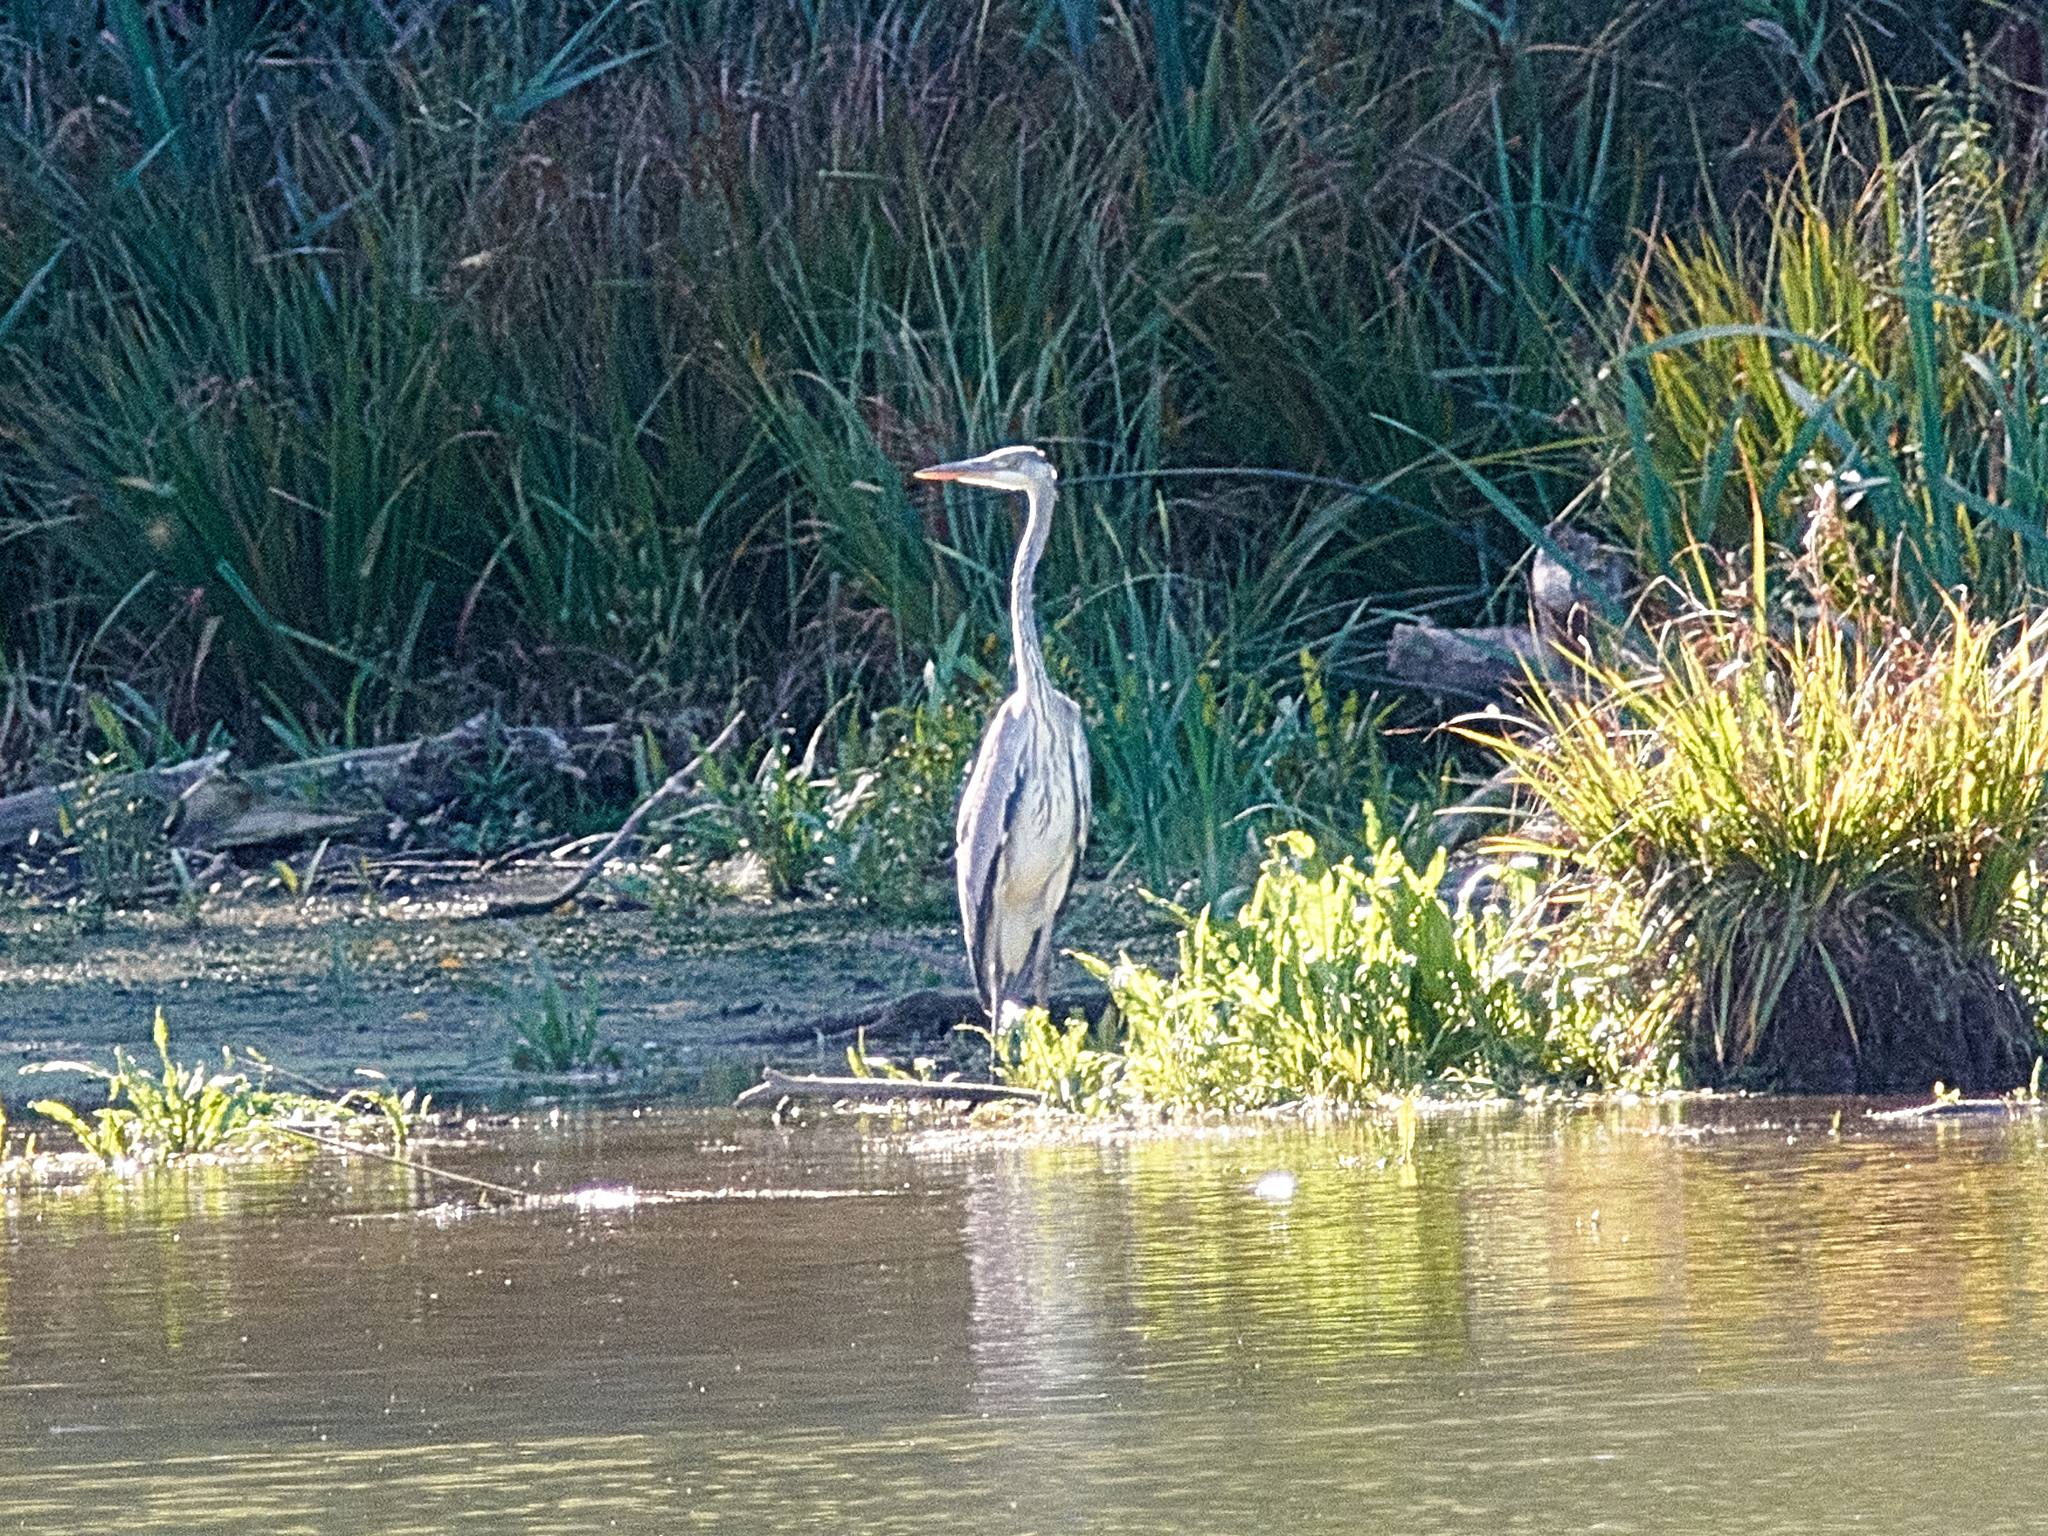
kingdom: Animalia
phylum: Chordata
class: Aves
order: Pelecaniformes
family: Ardeidae
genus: Ardea
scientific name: Ardea cinerea
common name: Grey heron
